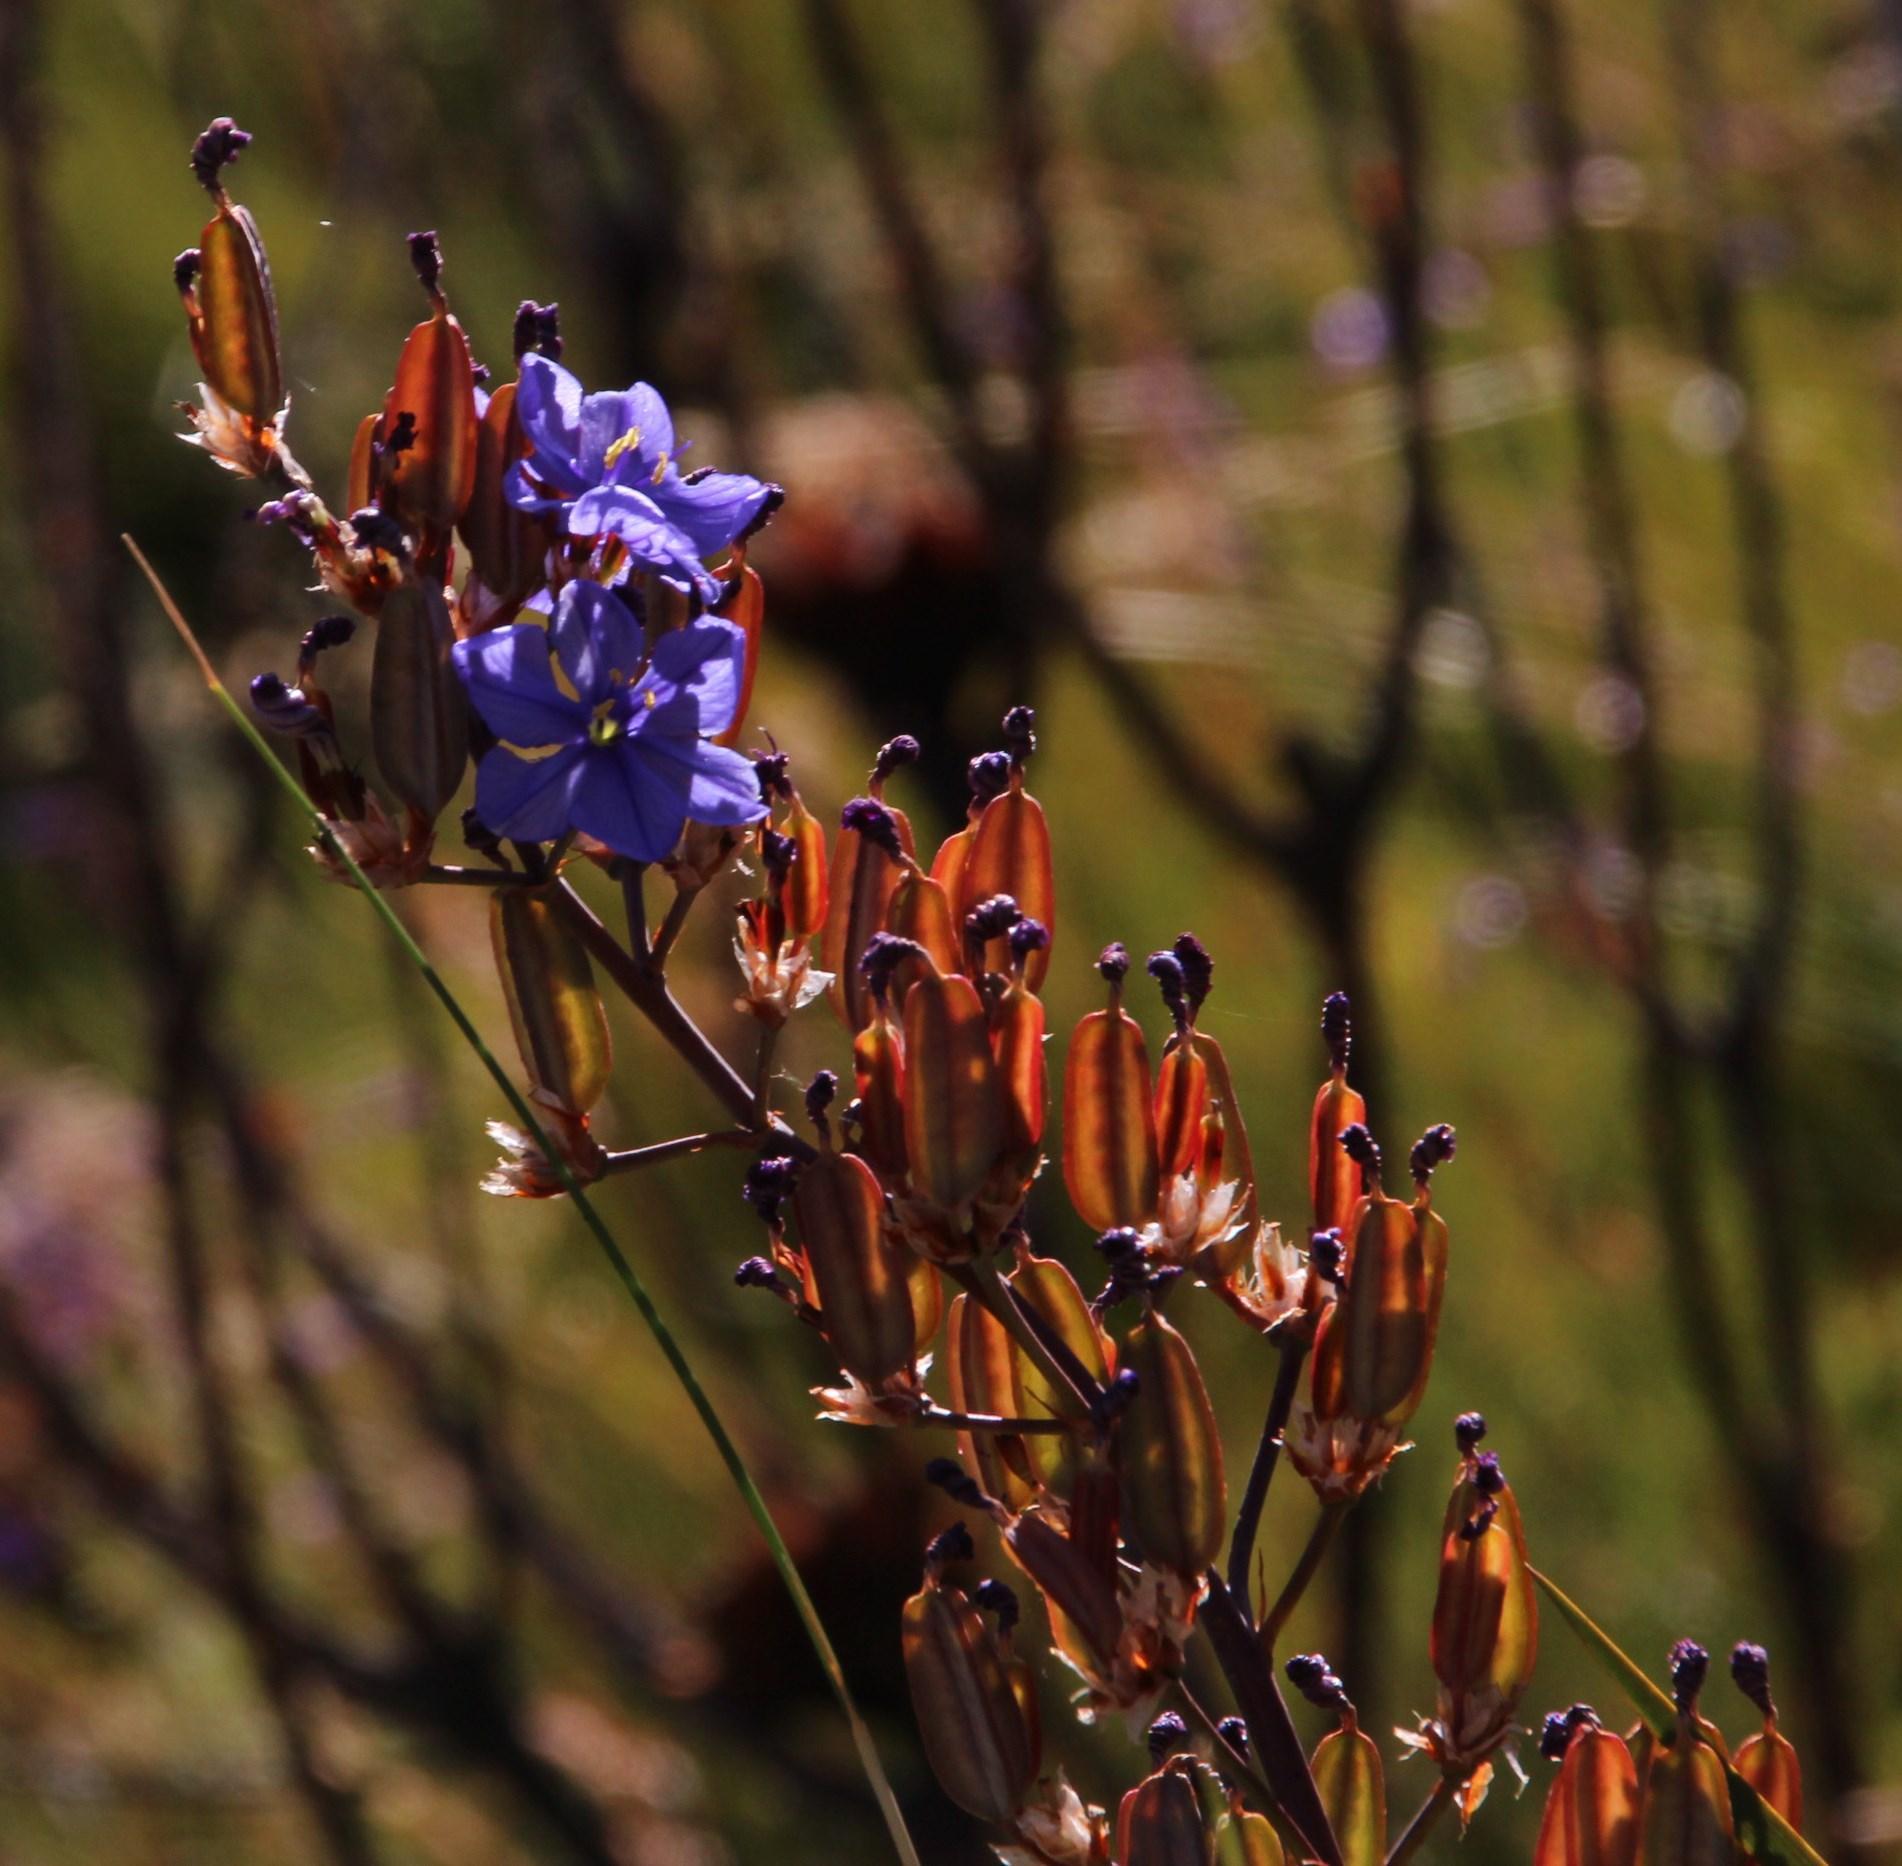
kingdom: Plantae
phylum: Tracheophyta
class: Liliopsida
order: Asparagales
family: Iridaceae
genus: Aristea
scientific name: Aristea capitata
